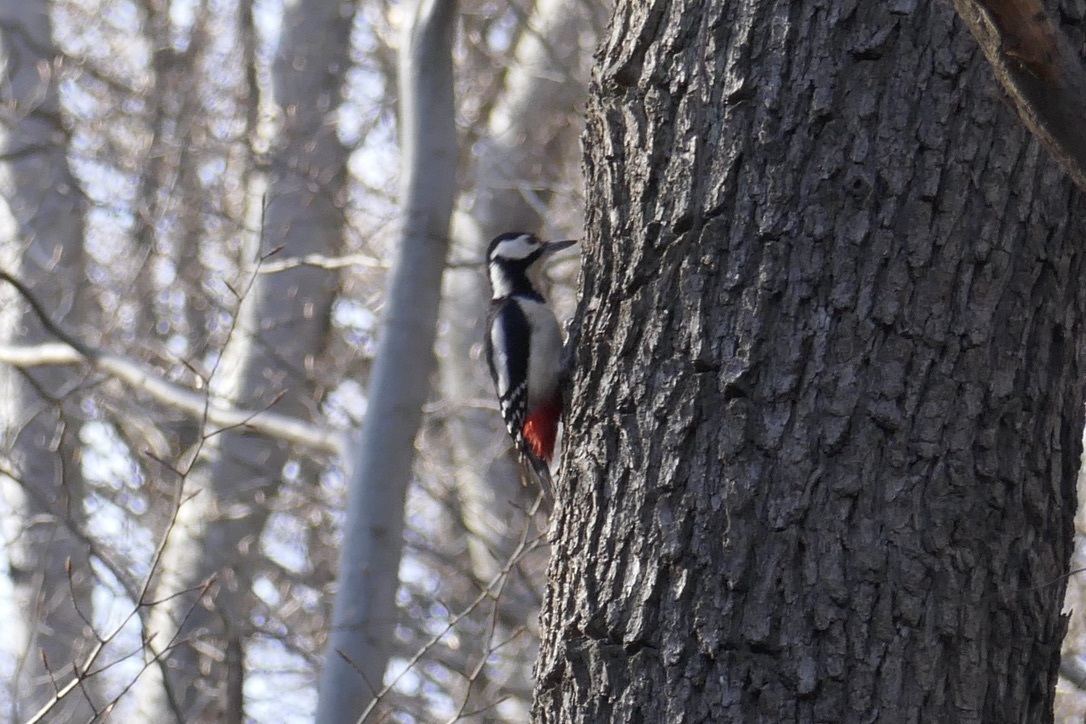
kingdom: Animalia
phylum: Chordata
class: Aves
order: Piciformes
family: Picidae
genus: Dendrocopos
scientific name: Dendrocopos major
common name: Great spotted woodpecker
